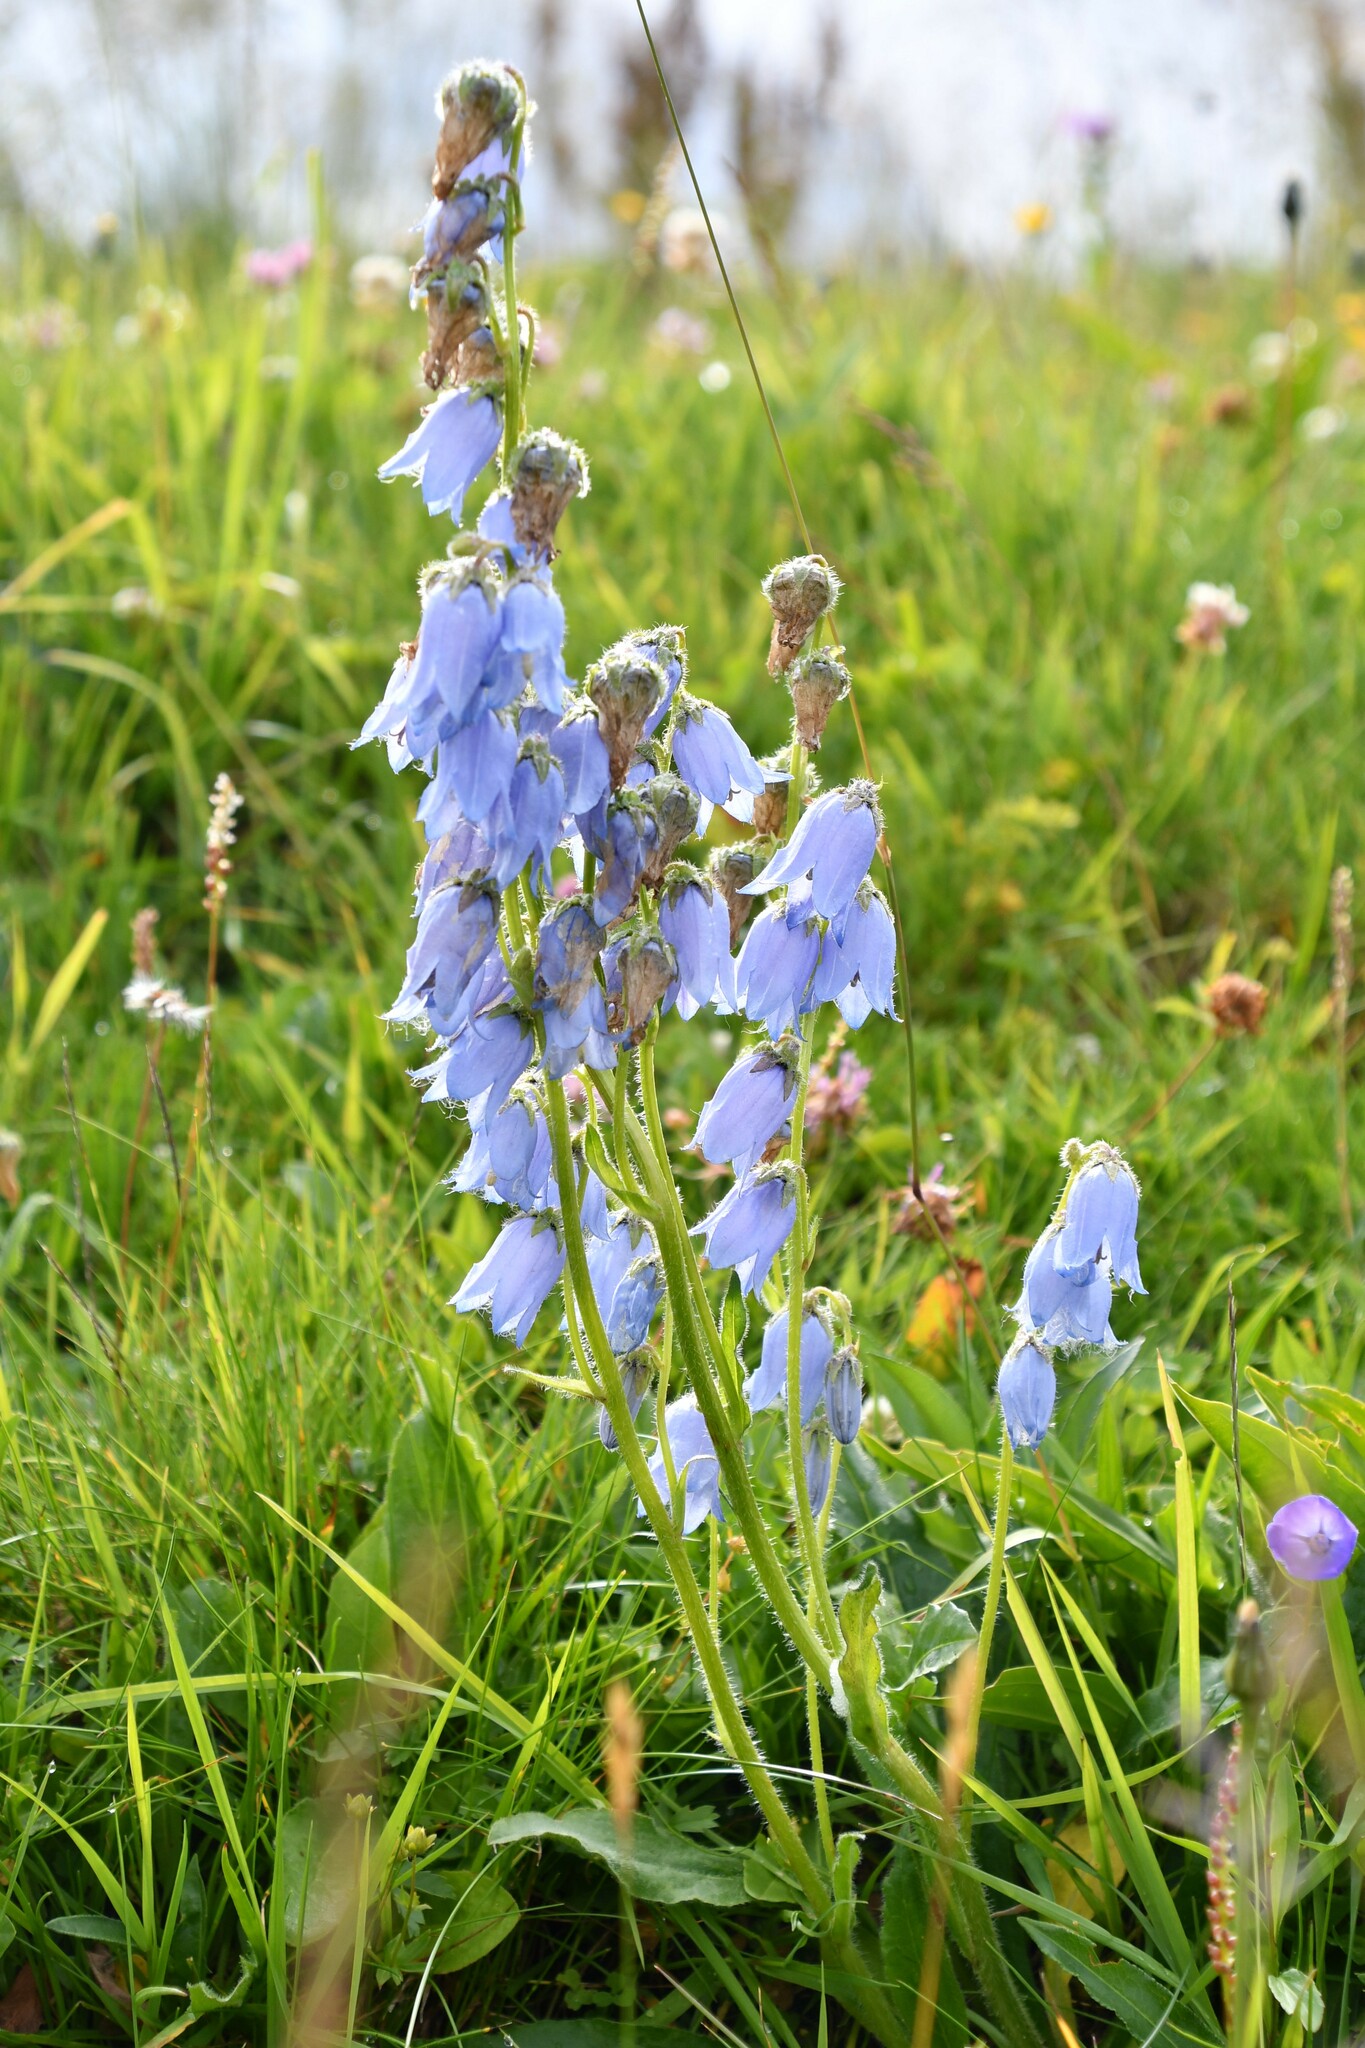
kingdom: Plantae
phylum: Tracheophyta
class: Magnoliopsida
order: Asterales
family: Campanulaceae
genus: Campanula
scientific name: Campanula barbata
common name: Bearded bellflower
